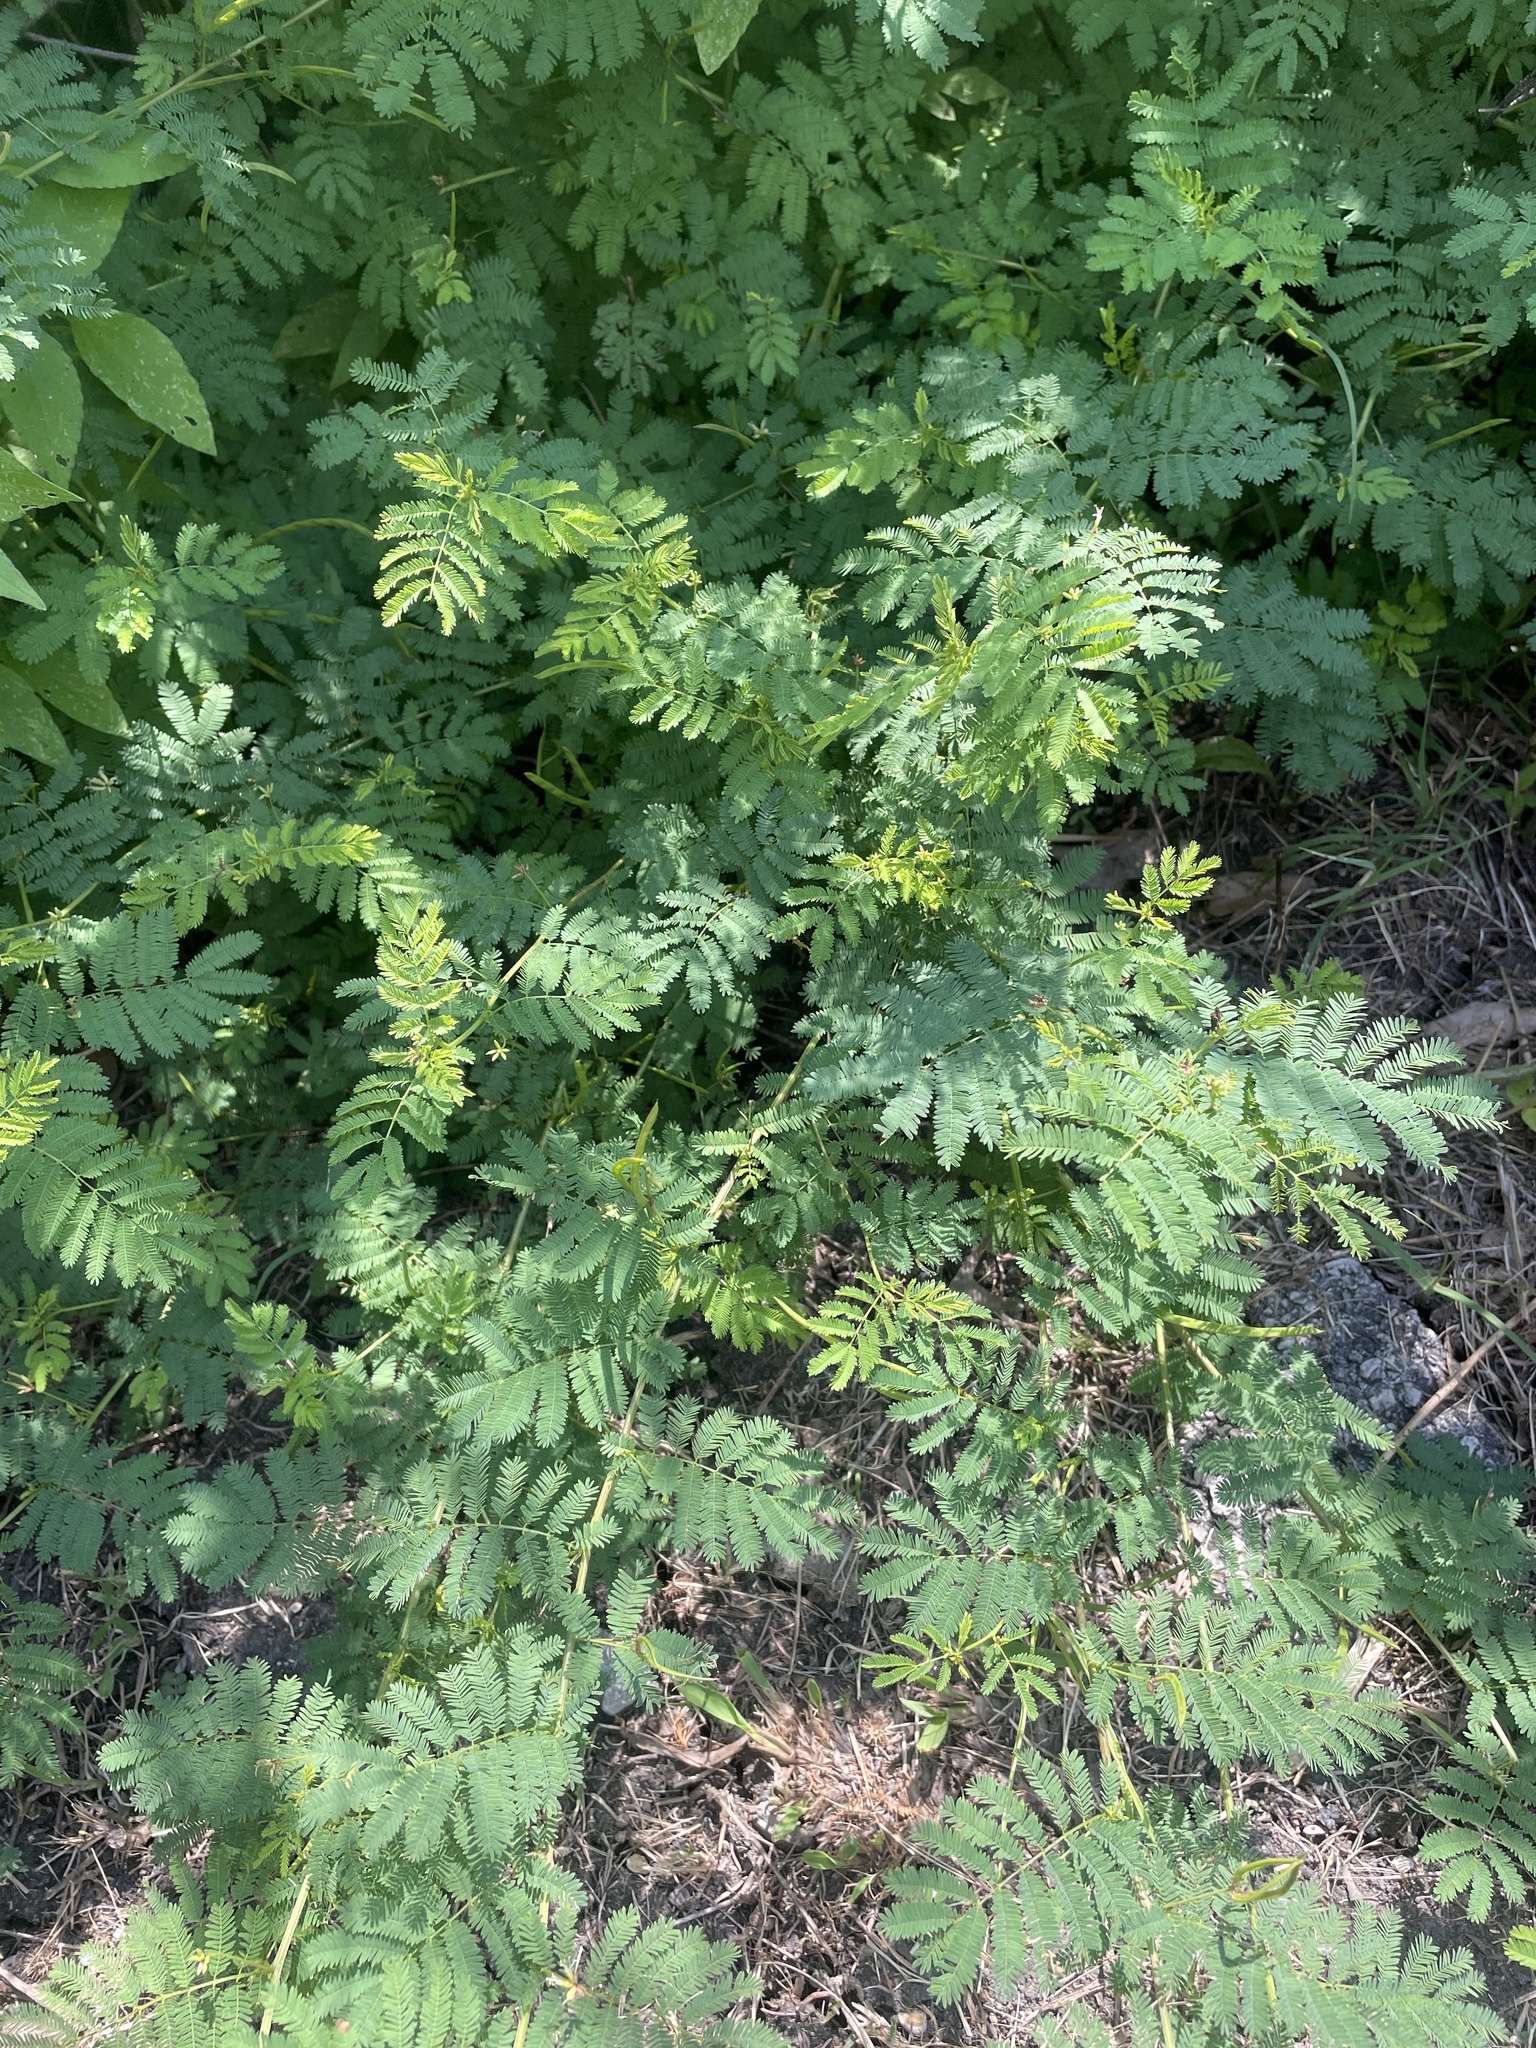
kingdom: Plantae
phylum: Tracheophyta
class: Magnoliopsida
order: Fabales
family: Fabaceae
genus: Desmanthus
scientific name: Desmanthus leptolobus
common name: Prairie-mimosa
